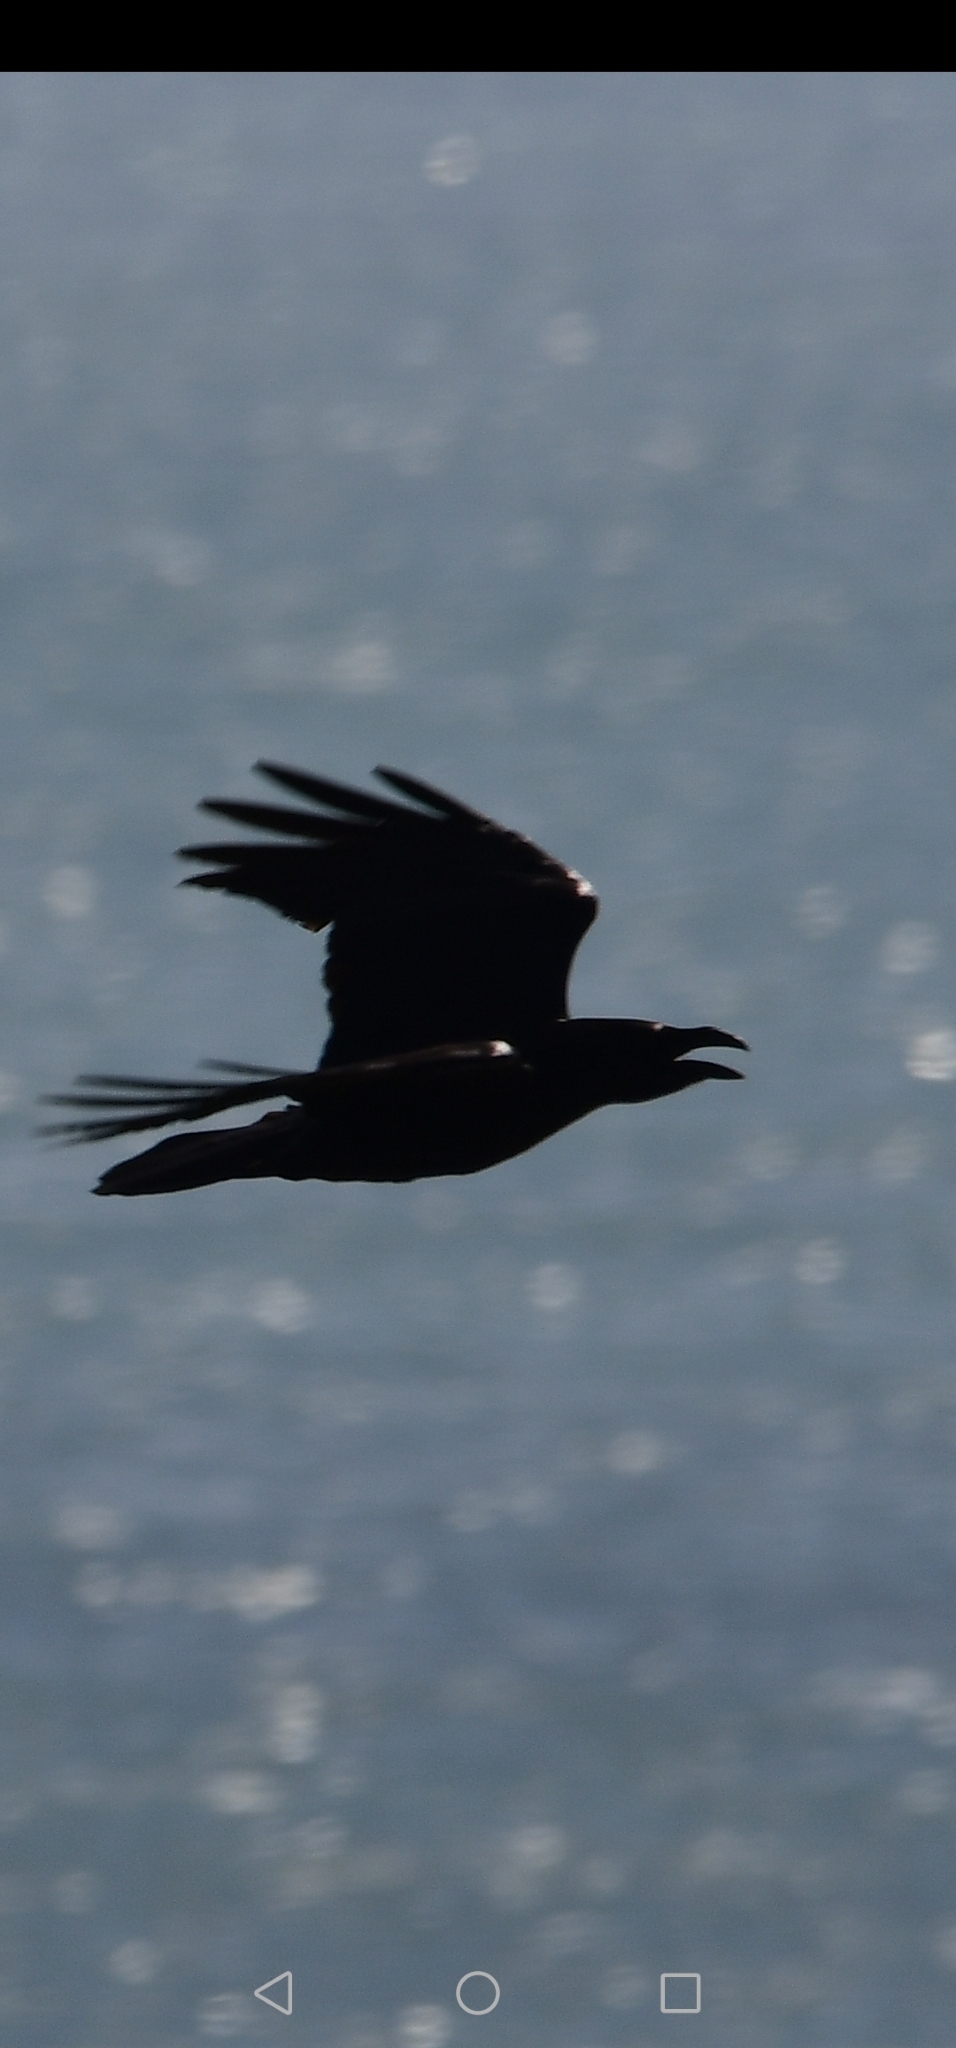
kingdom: Animalia
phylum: Chordata
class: Aves
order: Passeriformes
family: Corvidae
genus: Corvus
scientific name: Corvus corax
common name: Common raven
